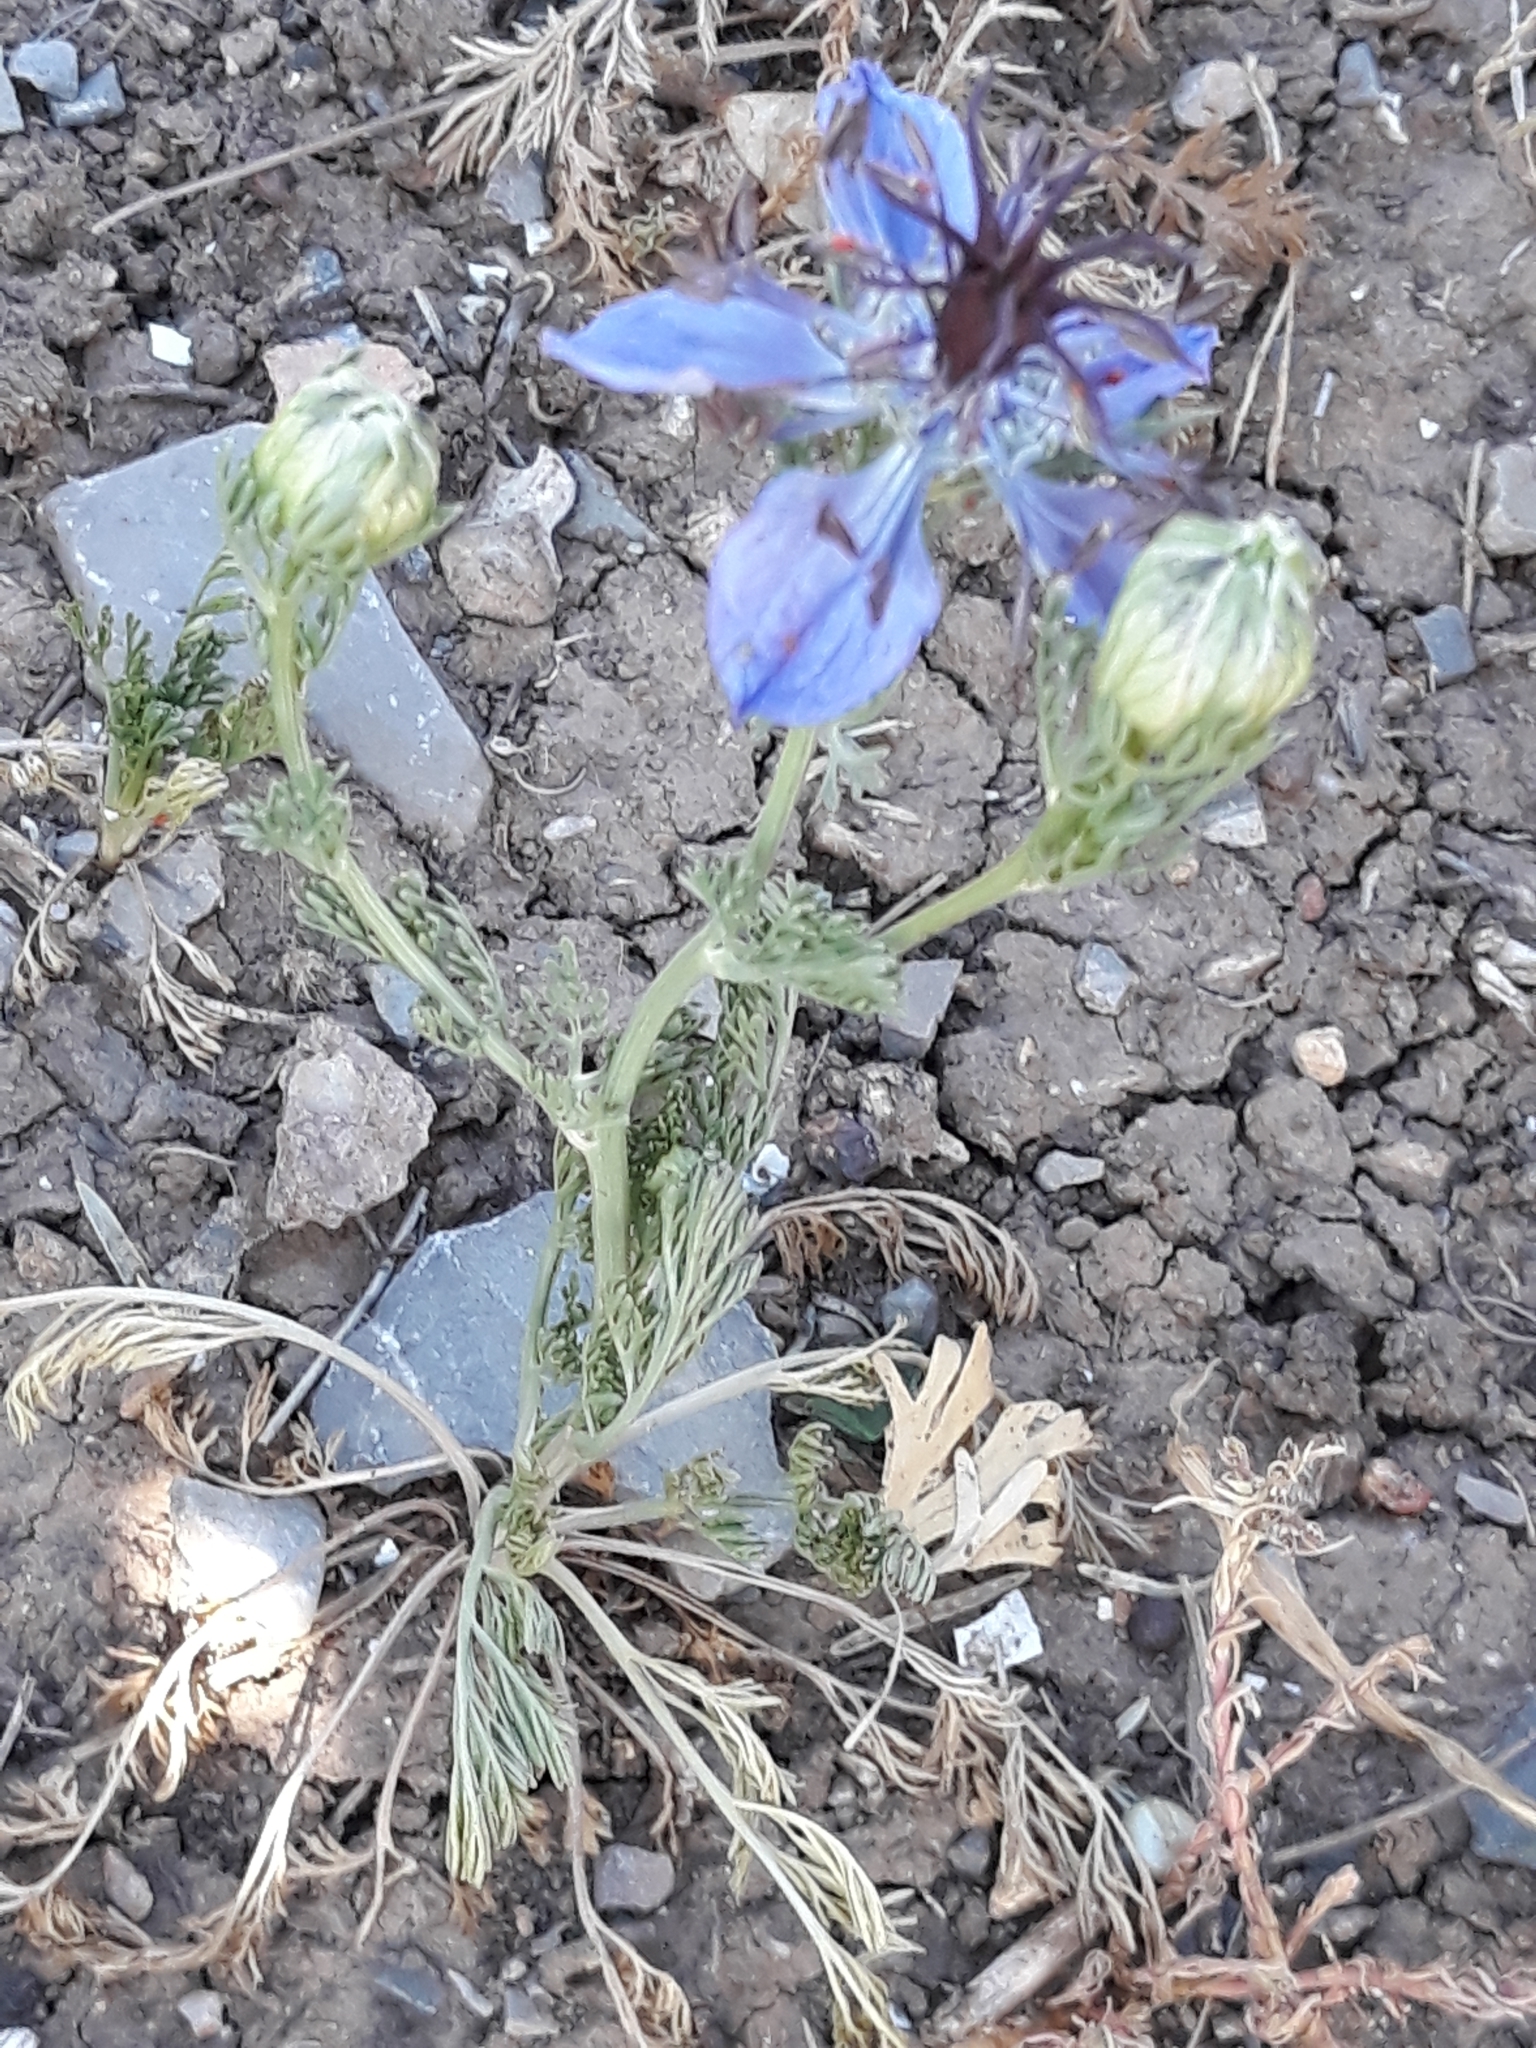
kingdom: Plantae
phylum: Tracheophyta
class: Magnoliopsida
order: Ranunculales
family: Ranunculaceae
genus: Nigella
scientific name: Nigella damascena
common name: Love-in-a-mist
